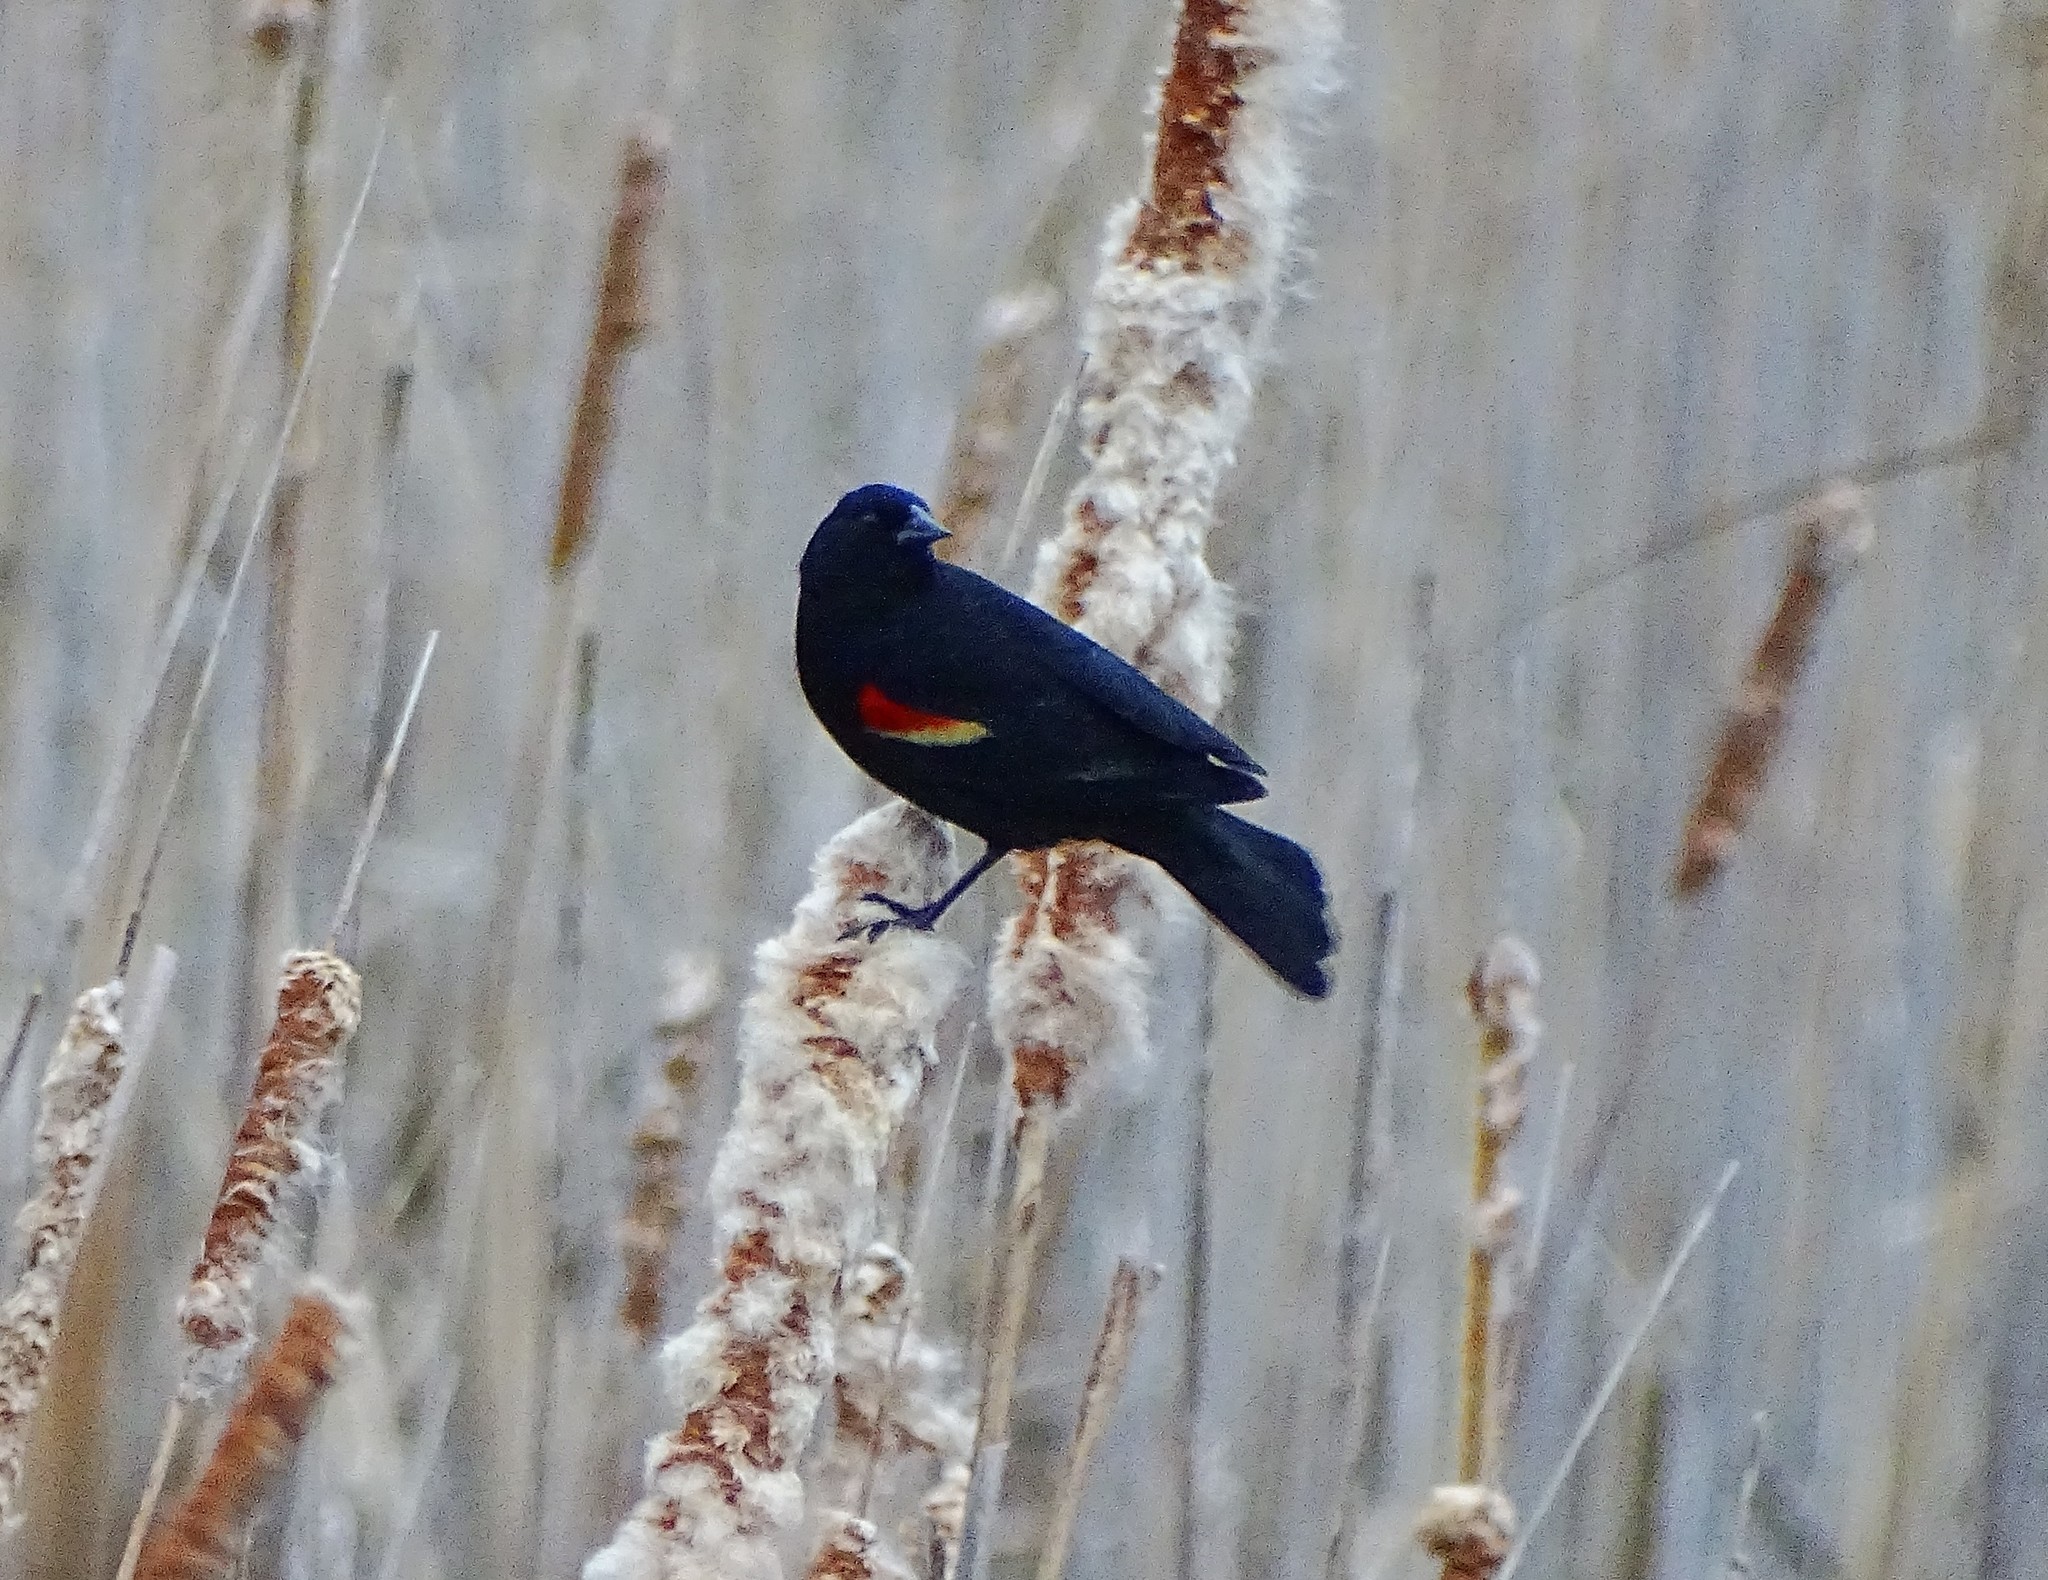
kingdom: Animalia
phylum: Chordata
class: Aves
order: Passeriformes
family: Icteridae
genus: Agelaius
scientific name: Agelaius phoeniceus
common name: Red-winged blackbird
